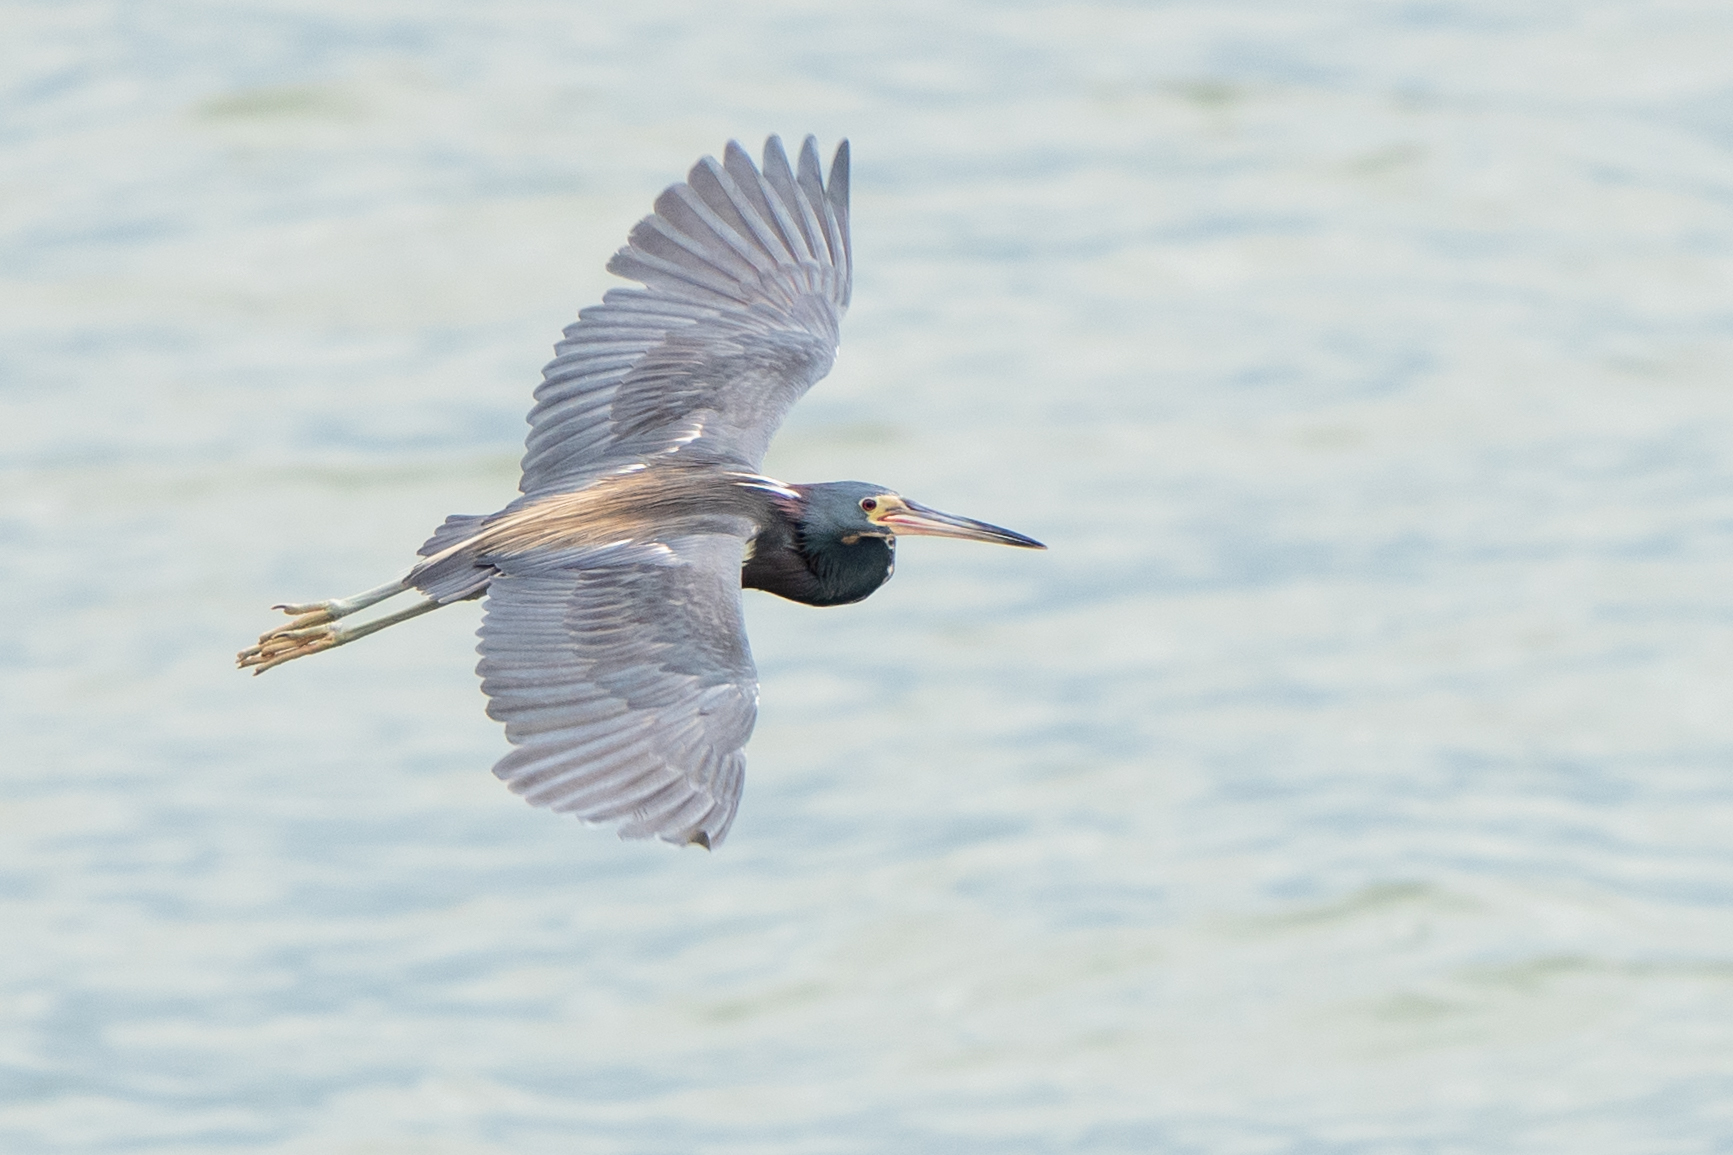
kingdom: Animalia
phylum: Chordata
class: Aves
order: Pelecaniformes
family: Ardeidae
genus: Egretta
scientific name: Egretta tricolor
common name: Tricolored heron
